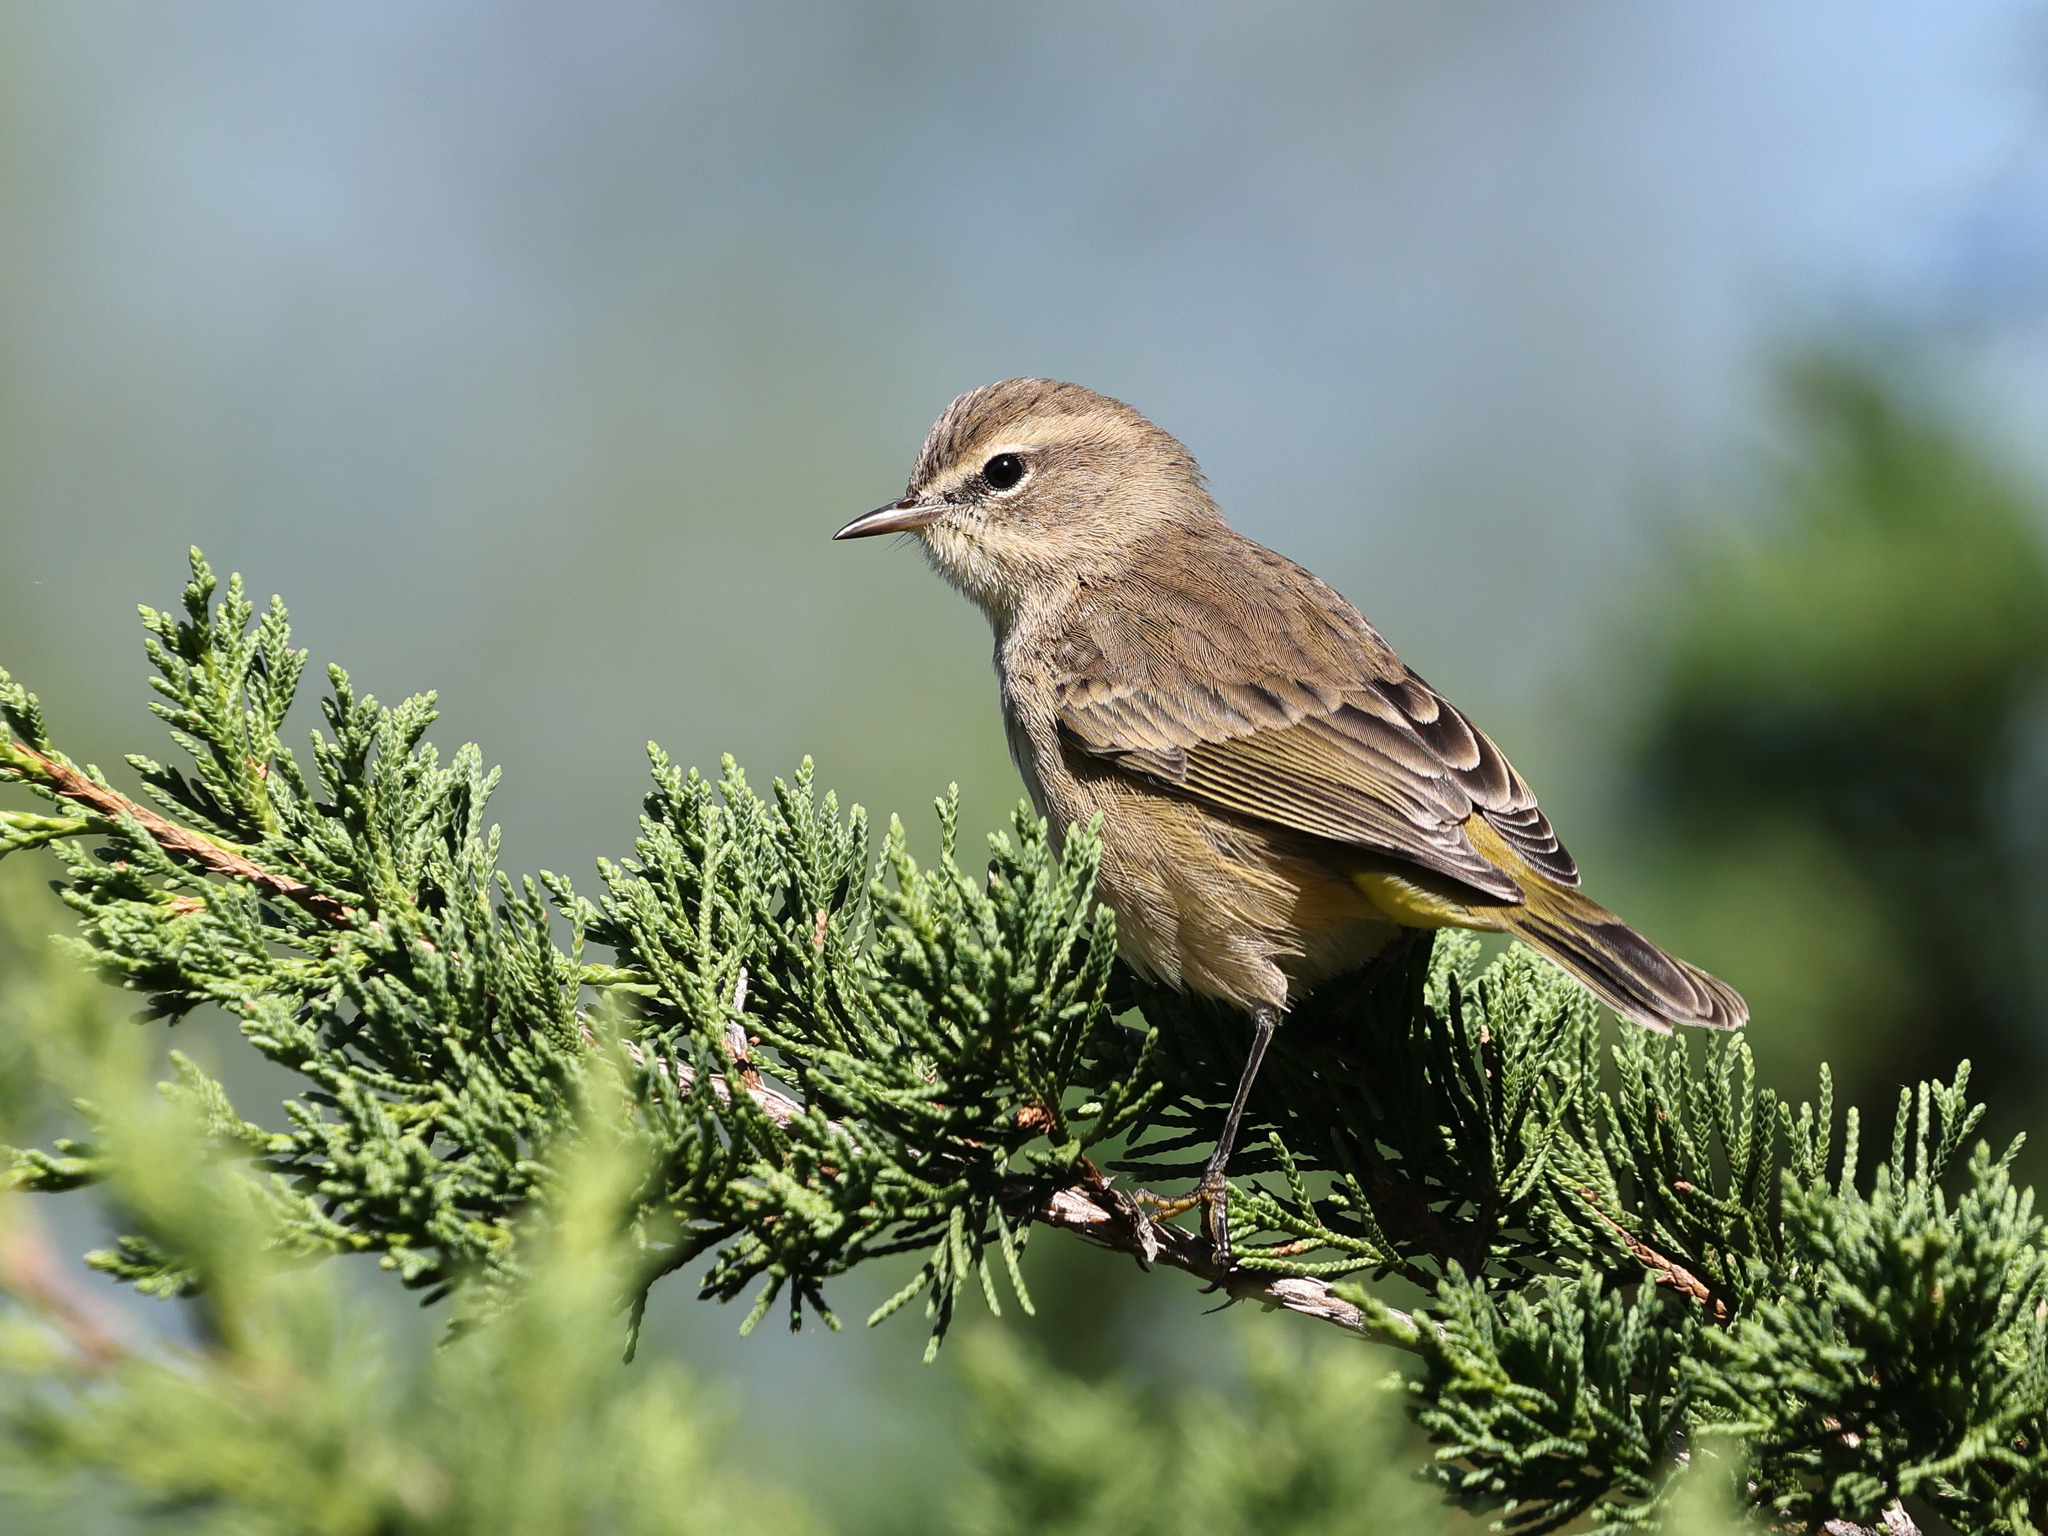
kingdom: Animalia
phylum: Chordata
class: Aves
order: Passeriformes
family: Parulidae
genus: Setophaga
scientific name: Setophaga palmarum
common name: Palm warbler
